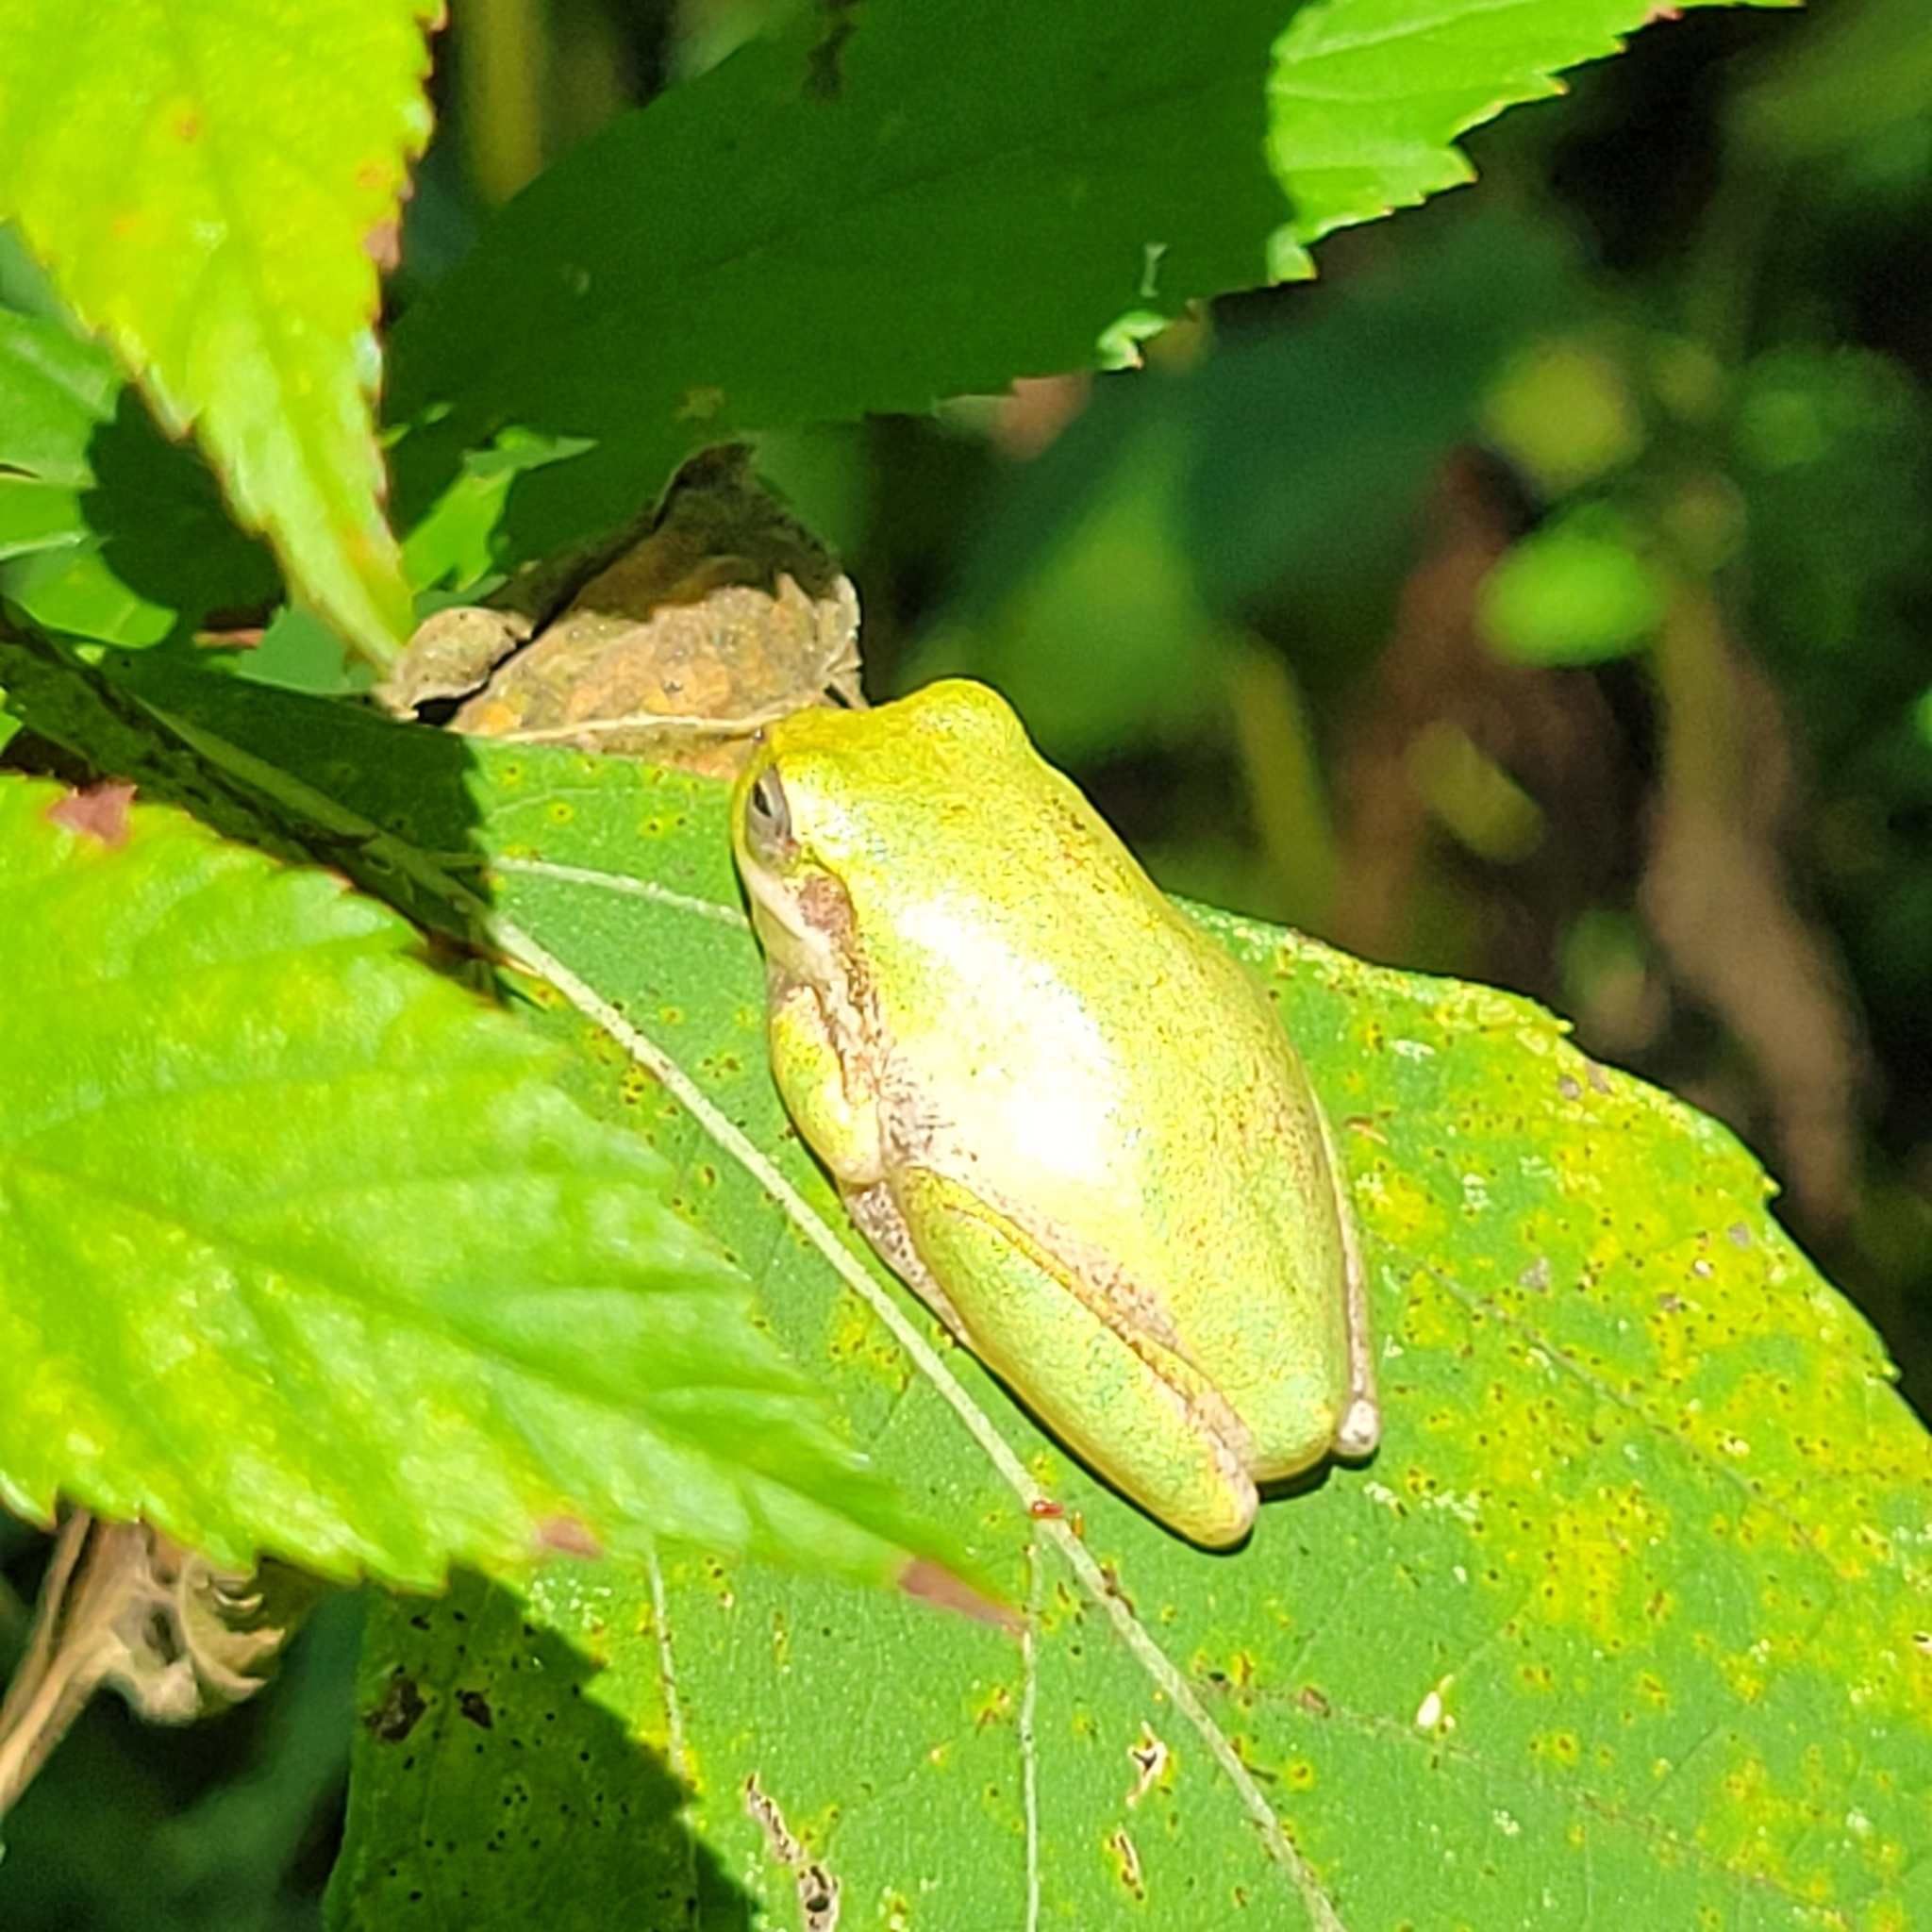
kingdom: Animalia
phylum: Chordata
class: Amphibia
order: Anura
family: Hylidae
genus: Dryophytes
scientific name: Dryophytes squirellus
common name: Squirrel treefrog
